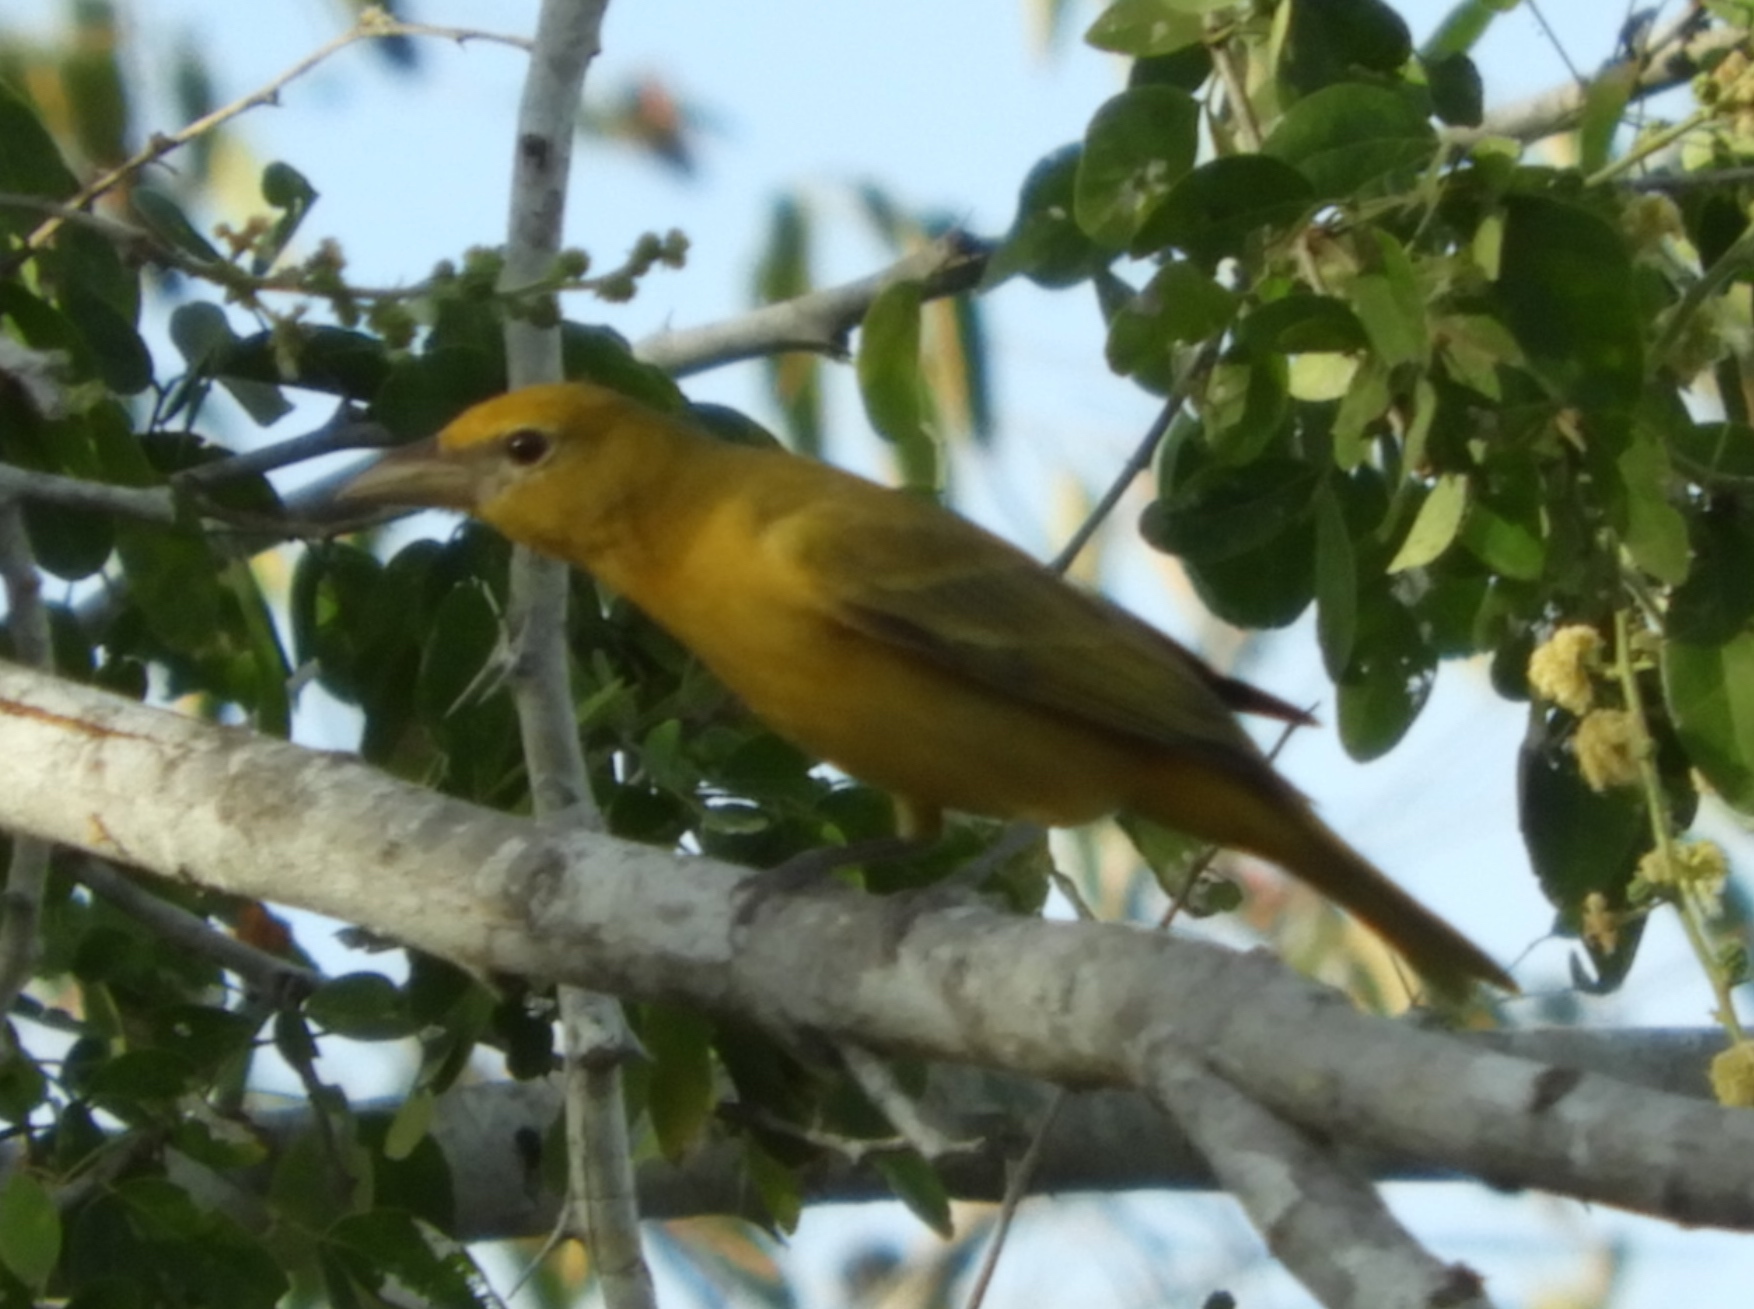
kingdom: Animalia
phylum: Chordata
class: Aves
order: Passeriformes
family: Cardinalidae
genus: Piranga
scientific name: Piranga rubra
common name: Summer tanager
